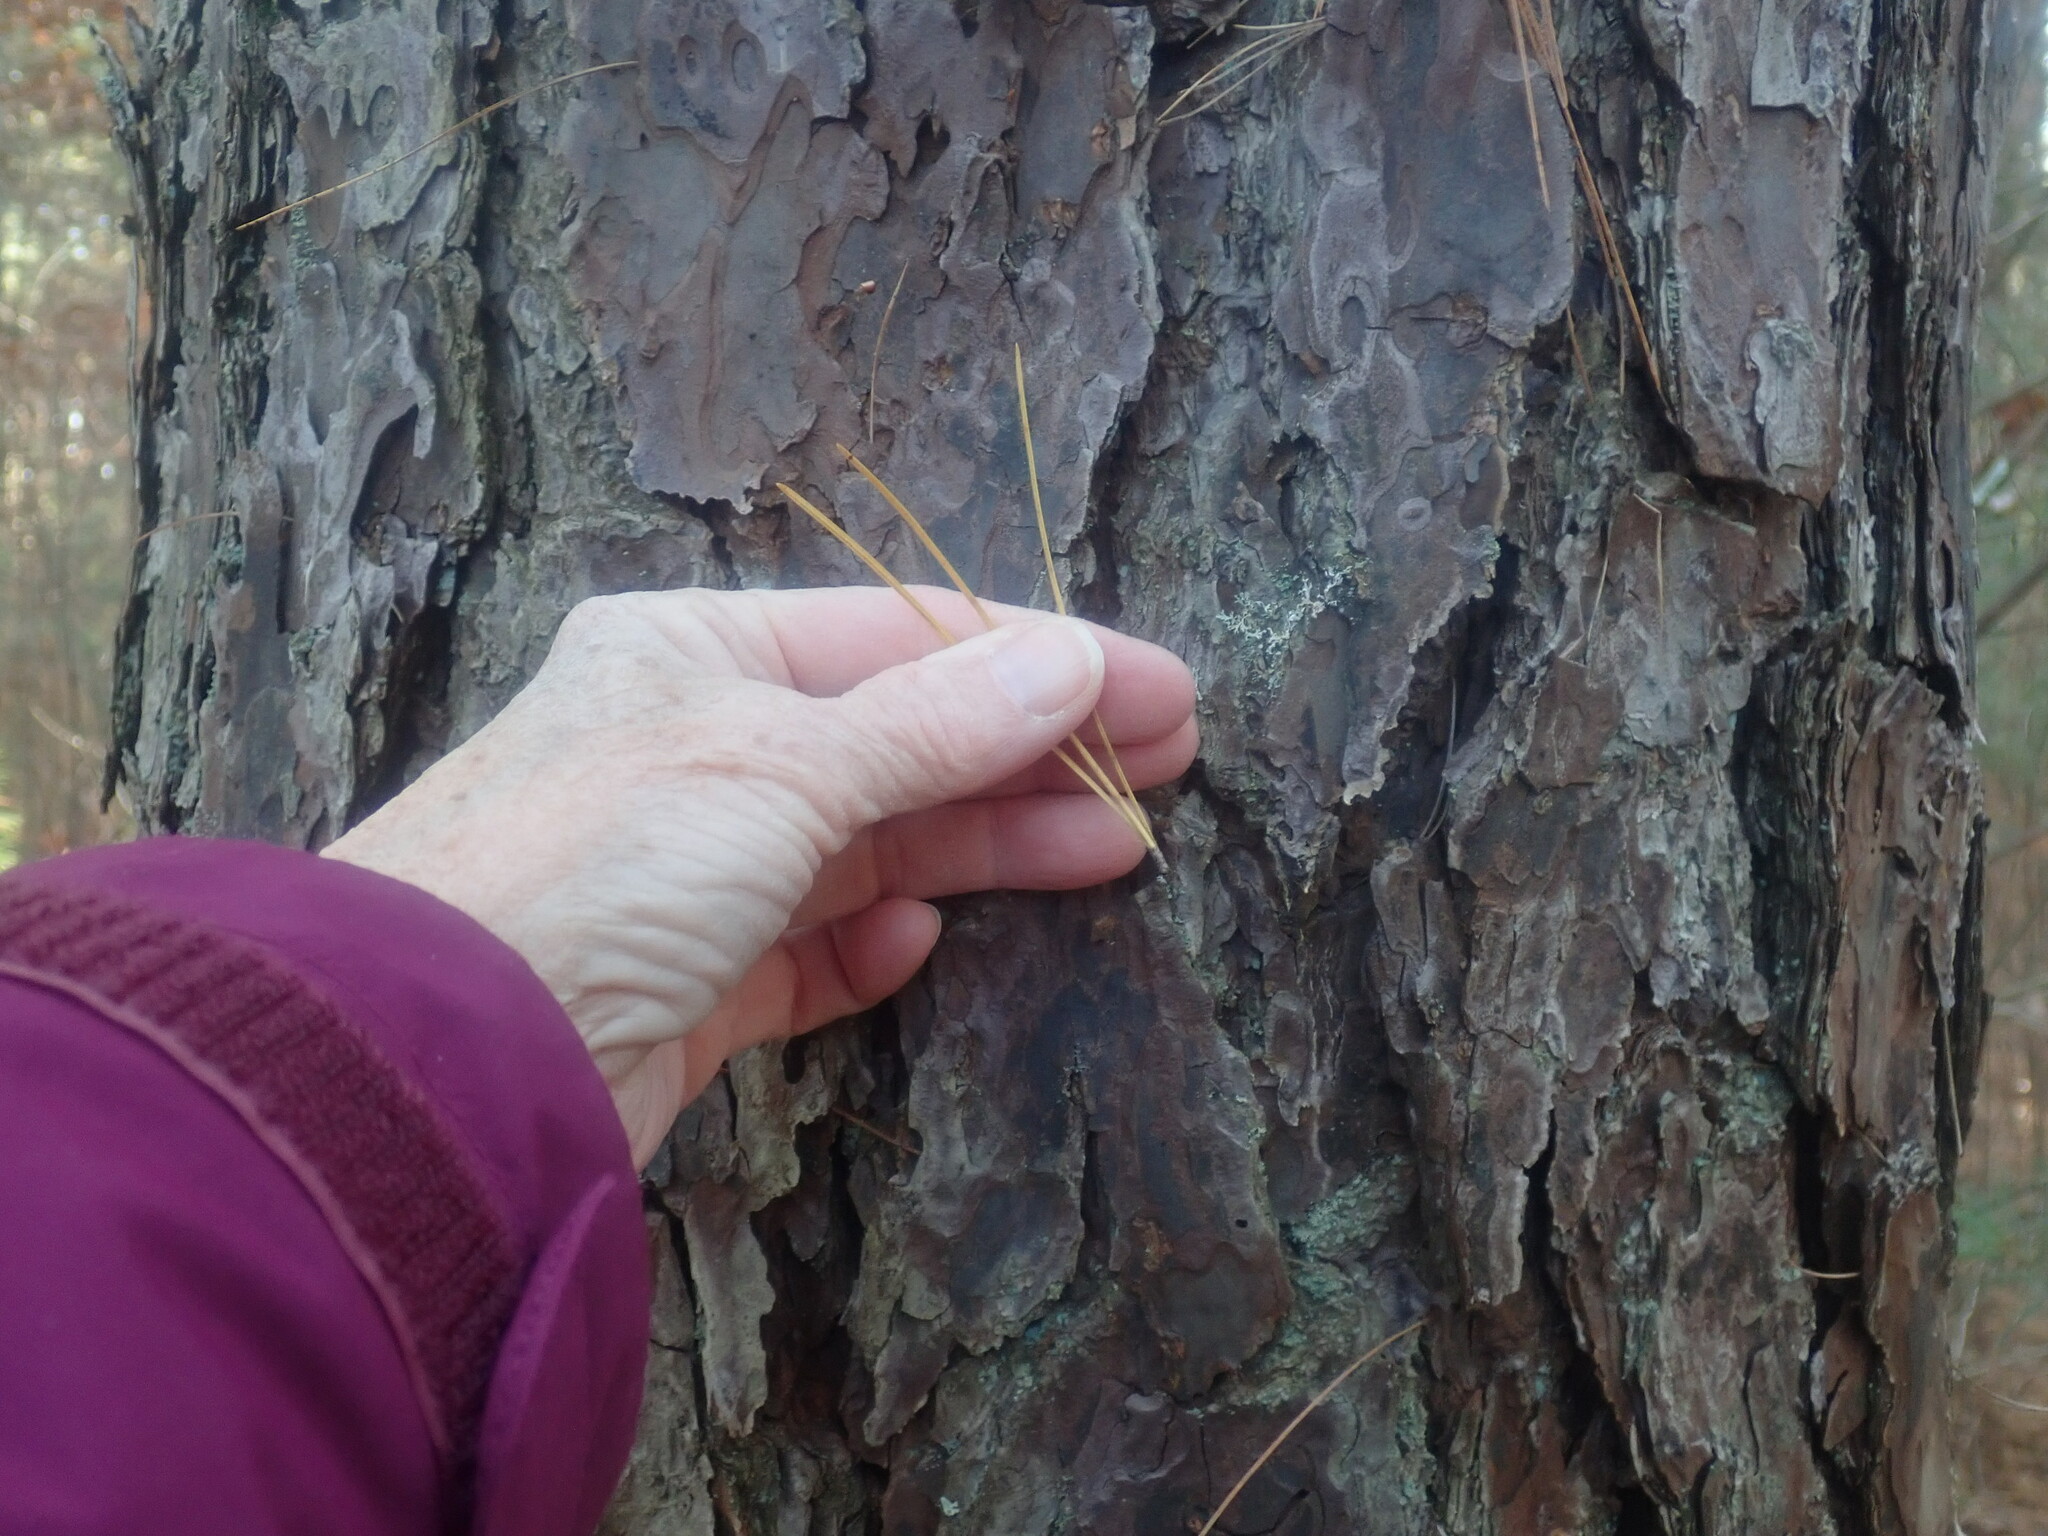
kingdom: Plantae
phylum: Tracheophyta
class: Pinopsida
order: Pinales
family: Pinaceae
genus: Pinus
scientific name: Pinus rigida
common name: Pitch pine
